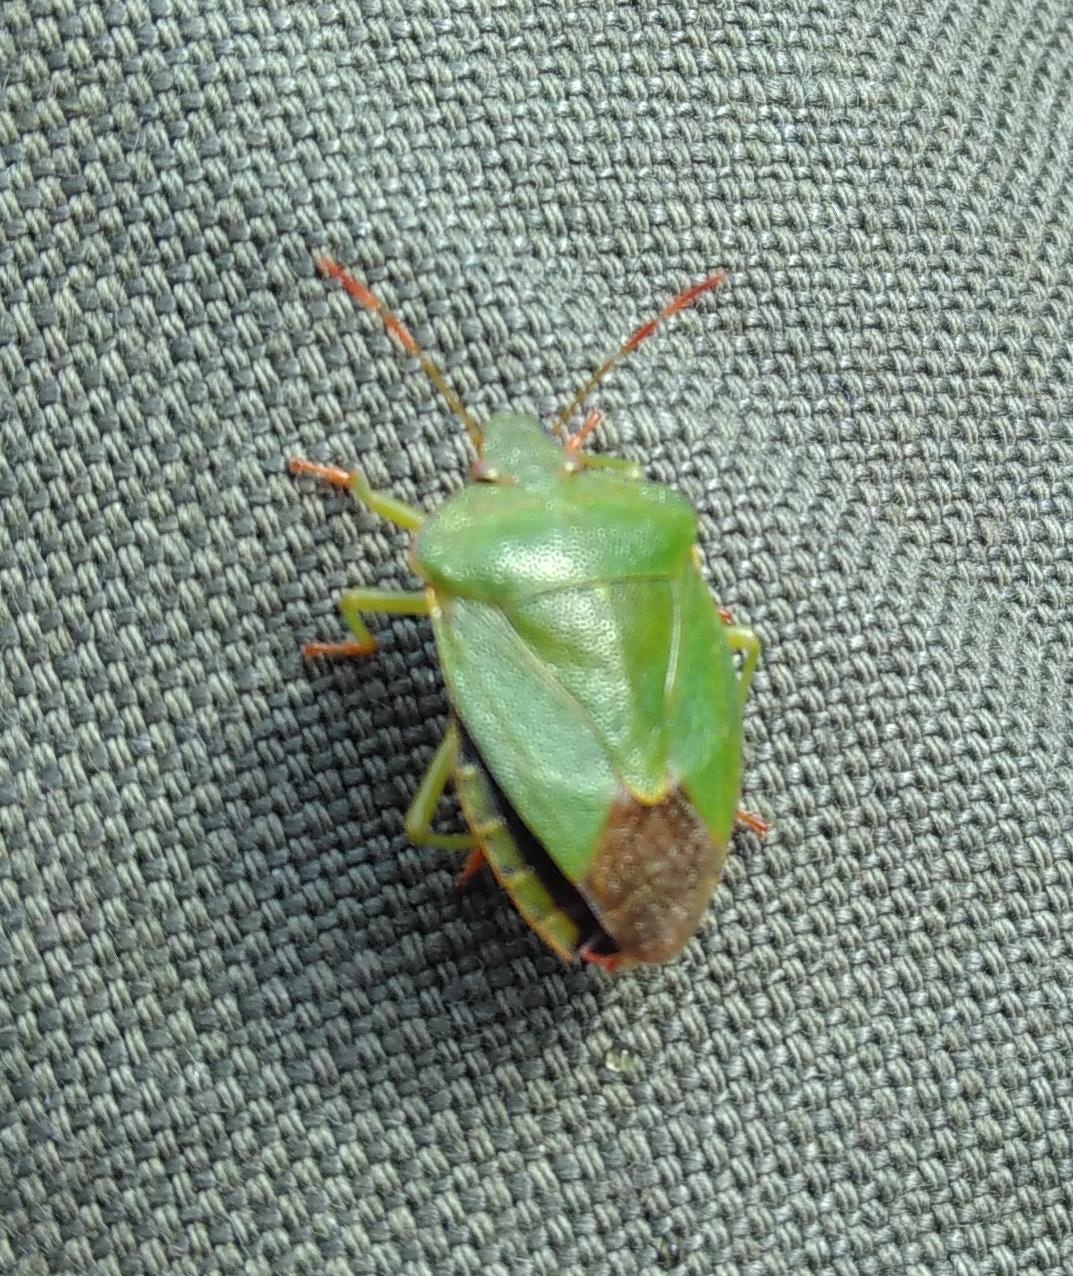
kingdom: Animalia
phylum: Arthropoda
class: Insecta
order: Hemiptera
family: Pentatomidae
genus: Palomena
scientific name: Palomena prasina
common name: Green shieldbug
